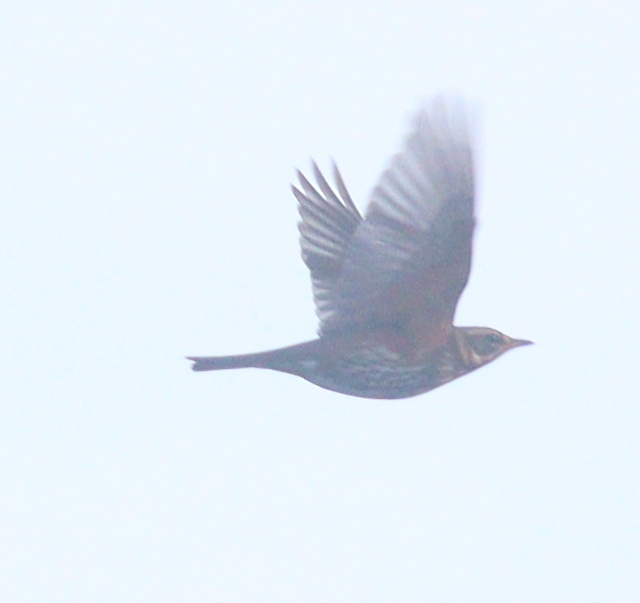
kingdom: Animalia
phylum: Chordata
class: Aves
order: Passeriformes
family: Turdidae
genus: Turdus
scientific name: Turdus iliacus
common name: Redwing
